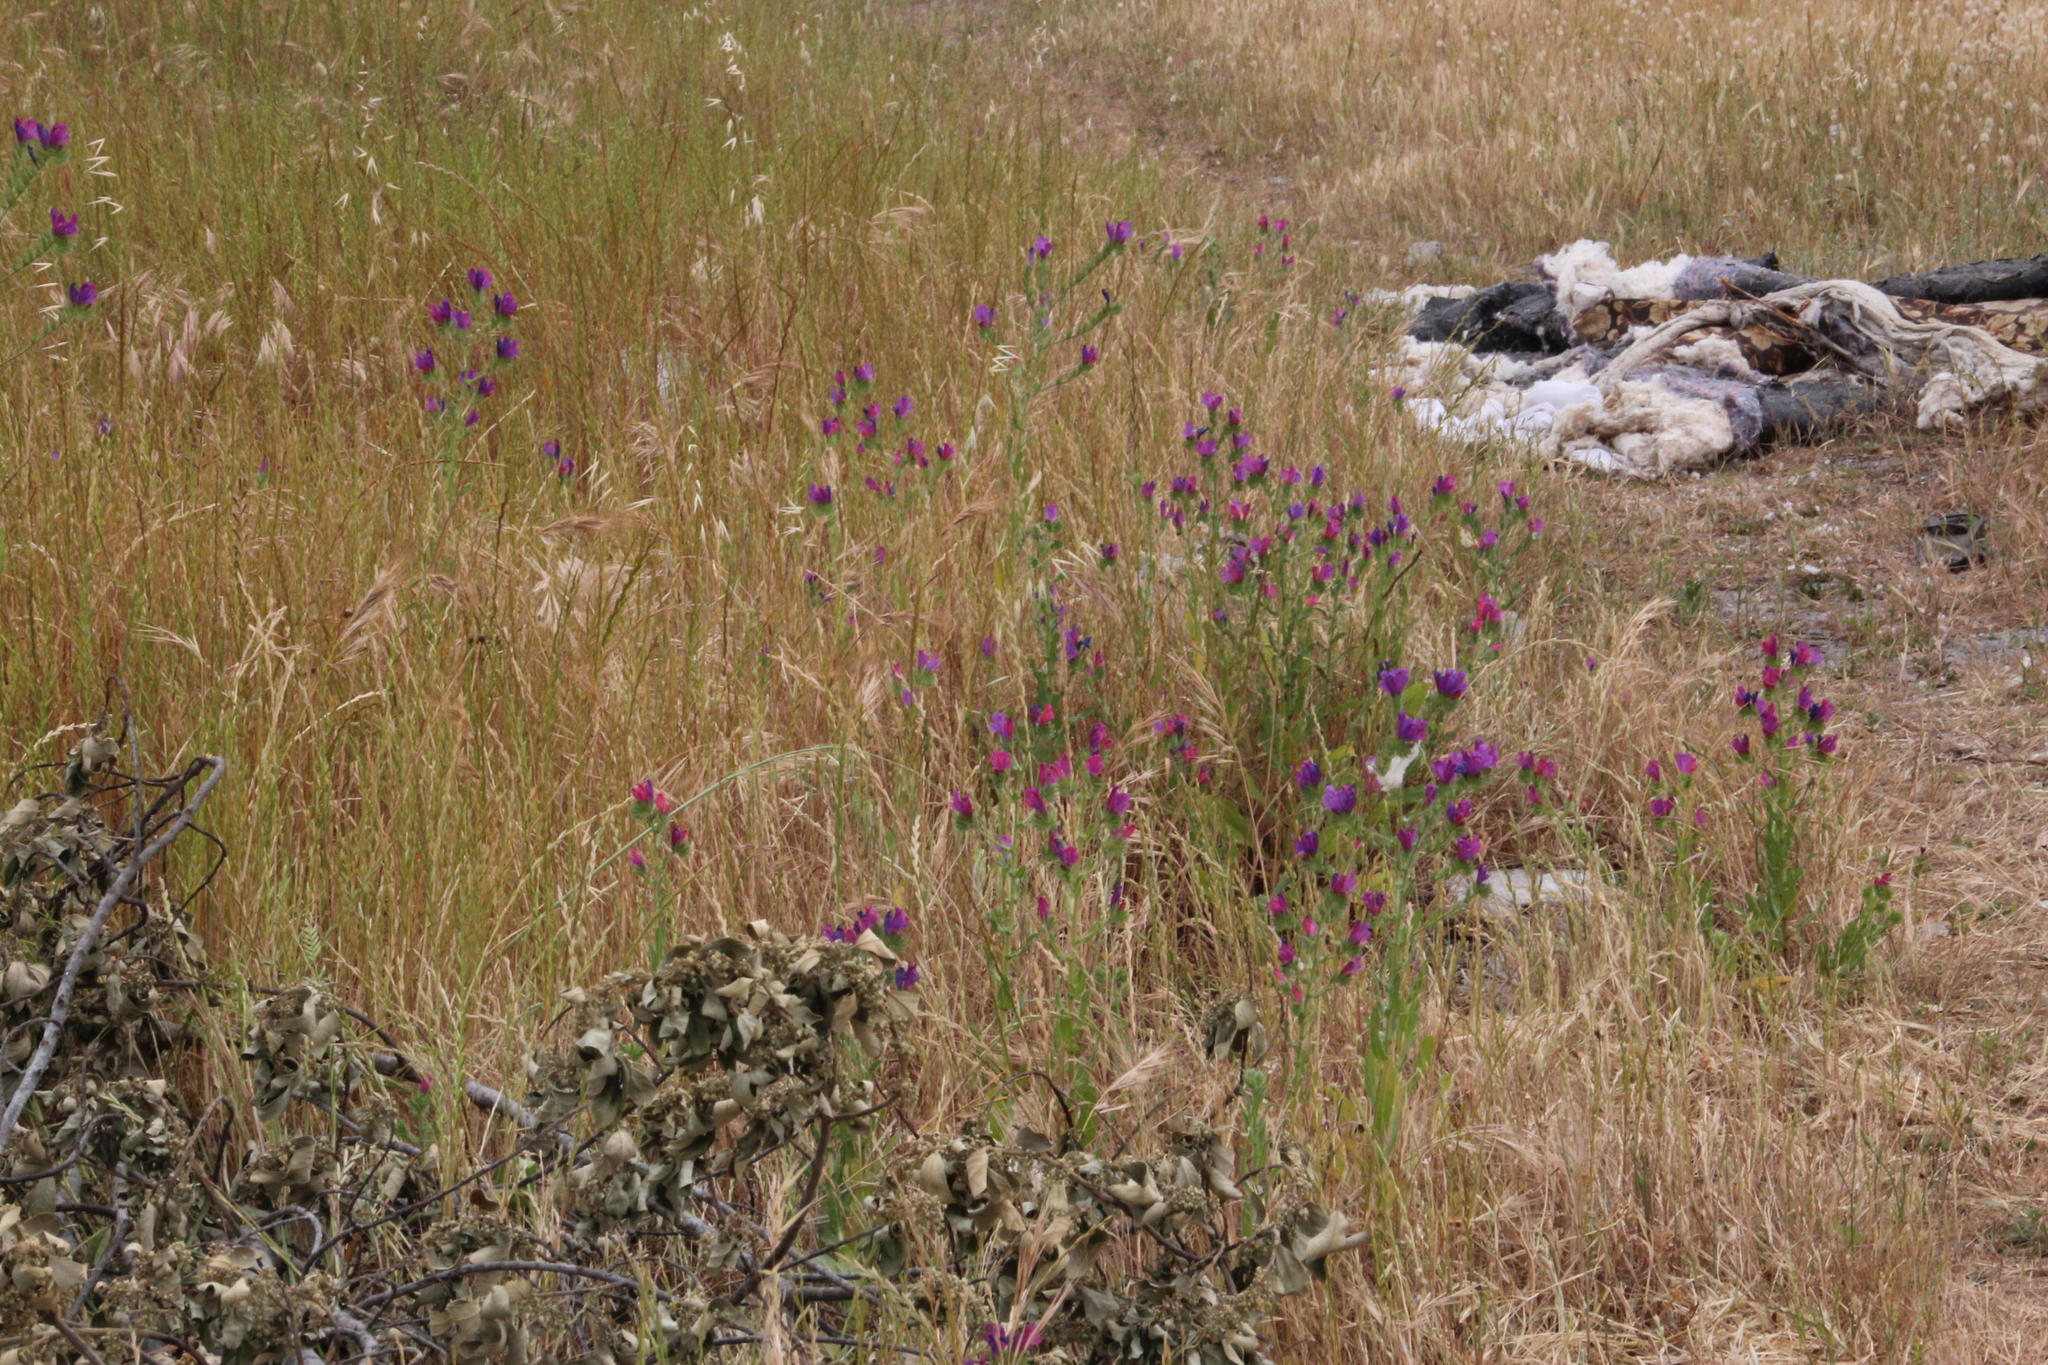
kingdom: Plantae
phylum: Tracheophyta
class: Magnoliopsida
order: Boraginales
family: Boraginaceae
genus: Echium
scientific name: Echium plantagineum
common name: Purple viper's-bugloss
